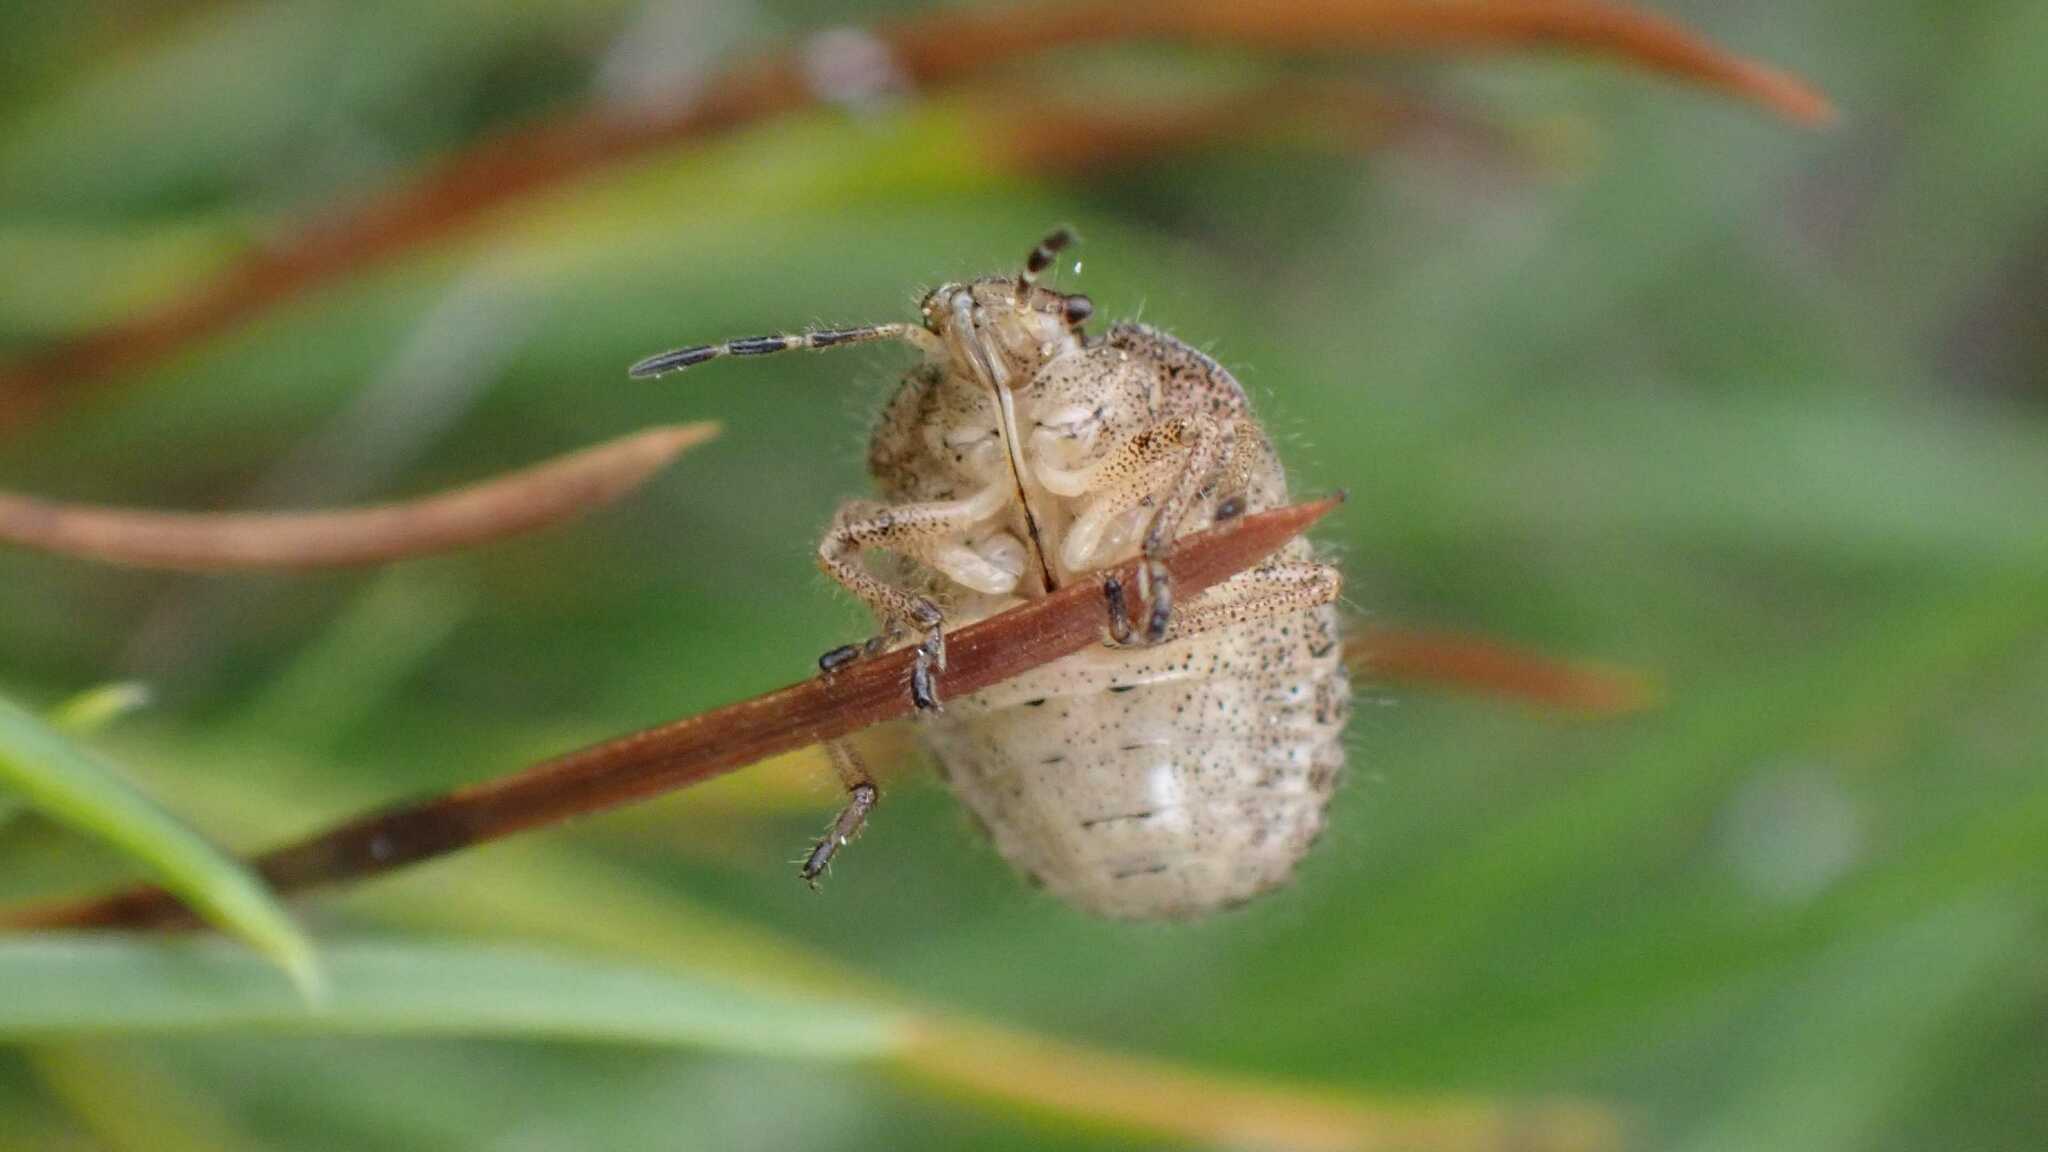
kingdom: Animalia
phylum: Arthropoda
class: Insecta
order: Hemiptera
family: Pentatomidae
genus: Dolycoris
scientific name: Dolycoris baccarum
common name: Sloe bug
